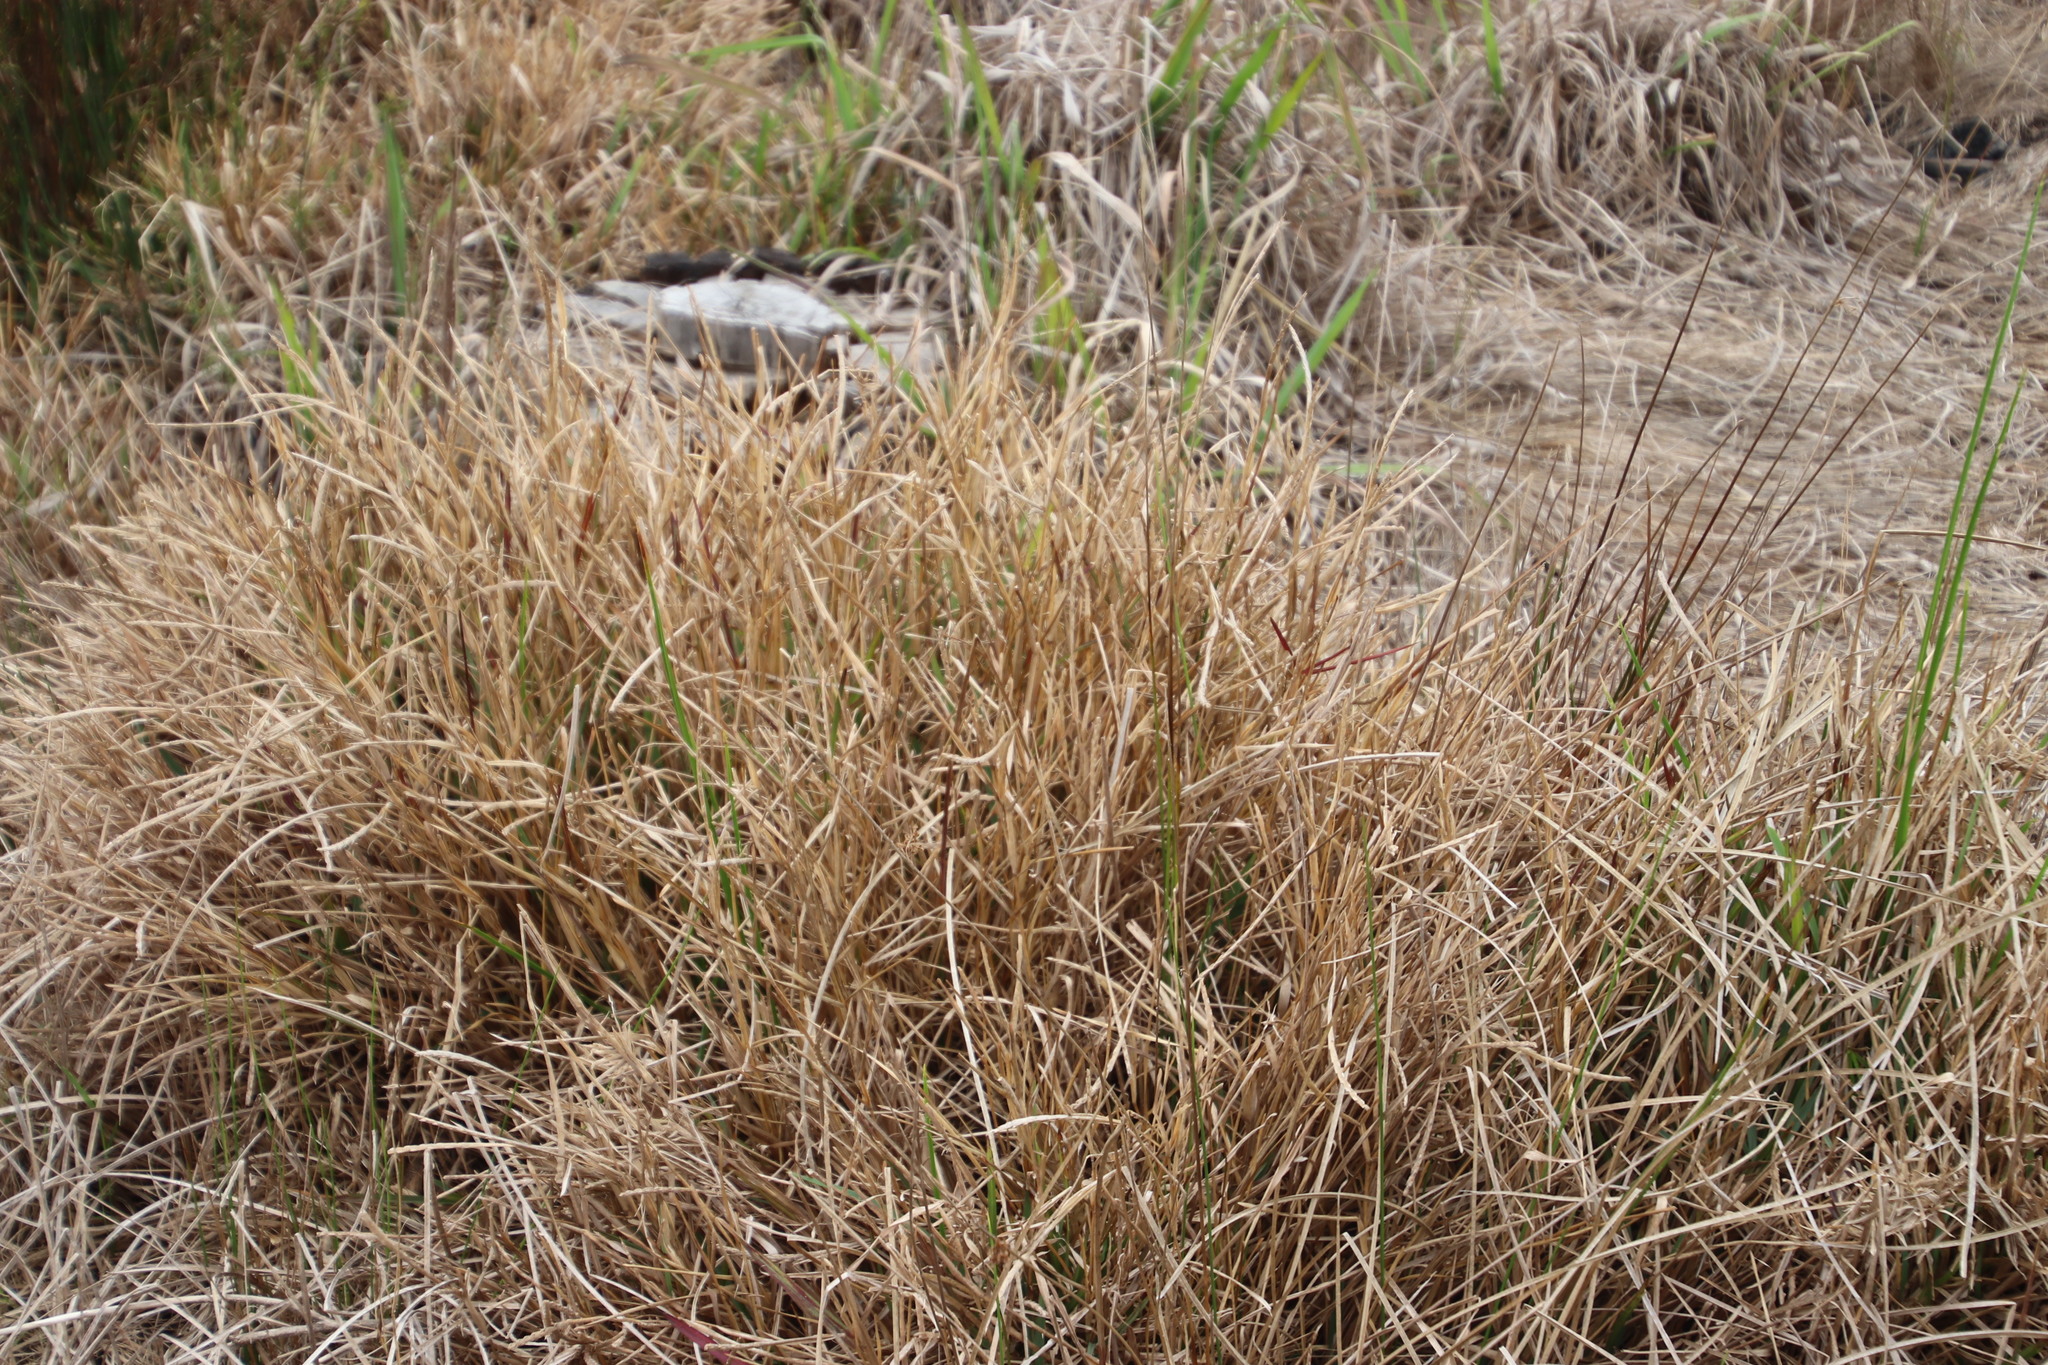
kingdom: Plantae
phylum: Tracheophyta
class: Liliopsida
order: Poales
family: Poaceae
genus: Stenotaphrum
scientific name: Stenotaphrum secundatum
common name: St. augustine grass
